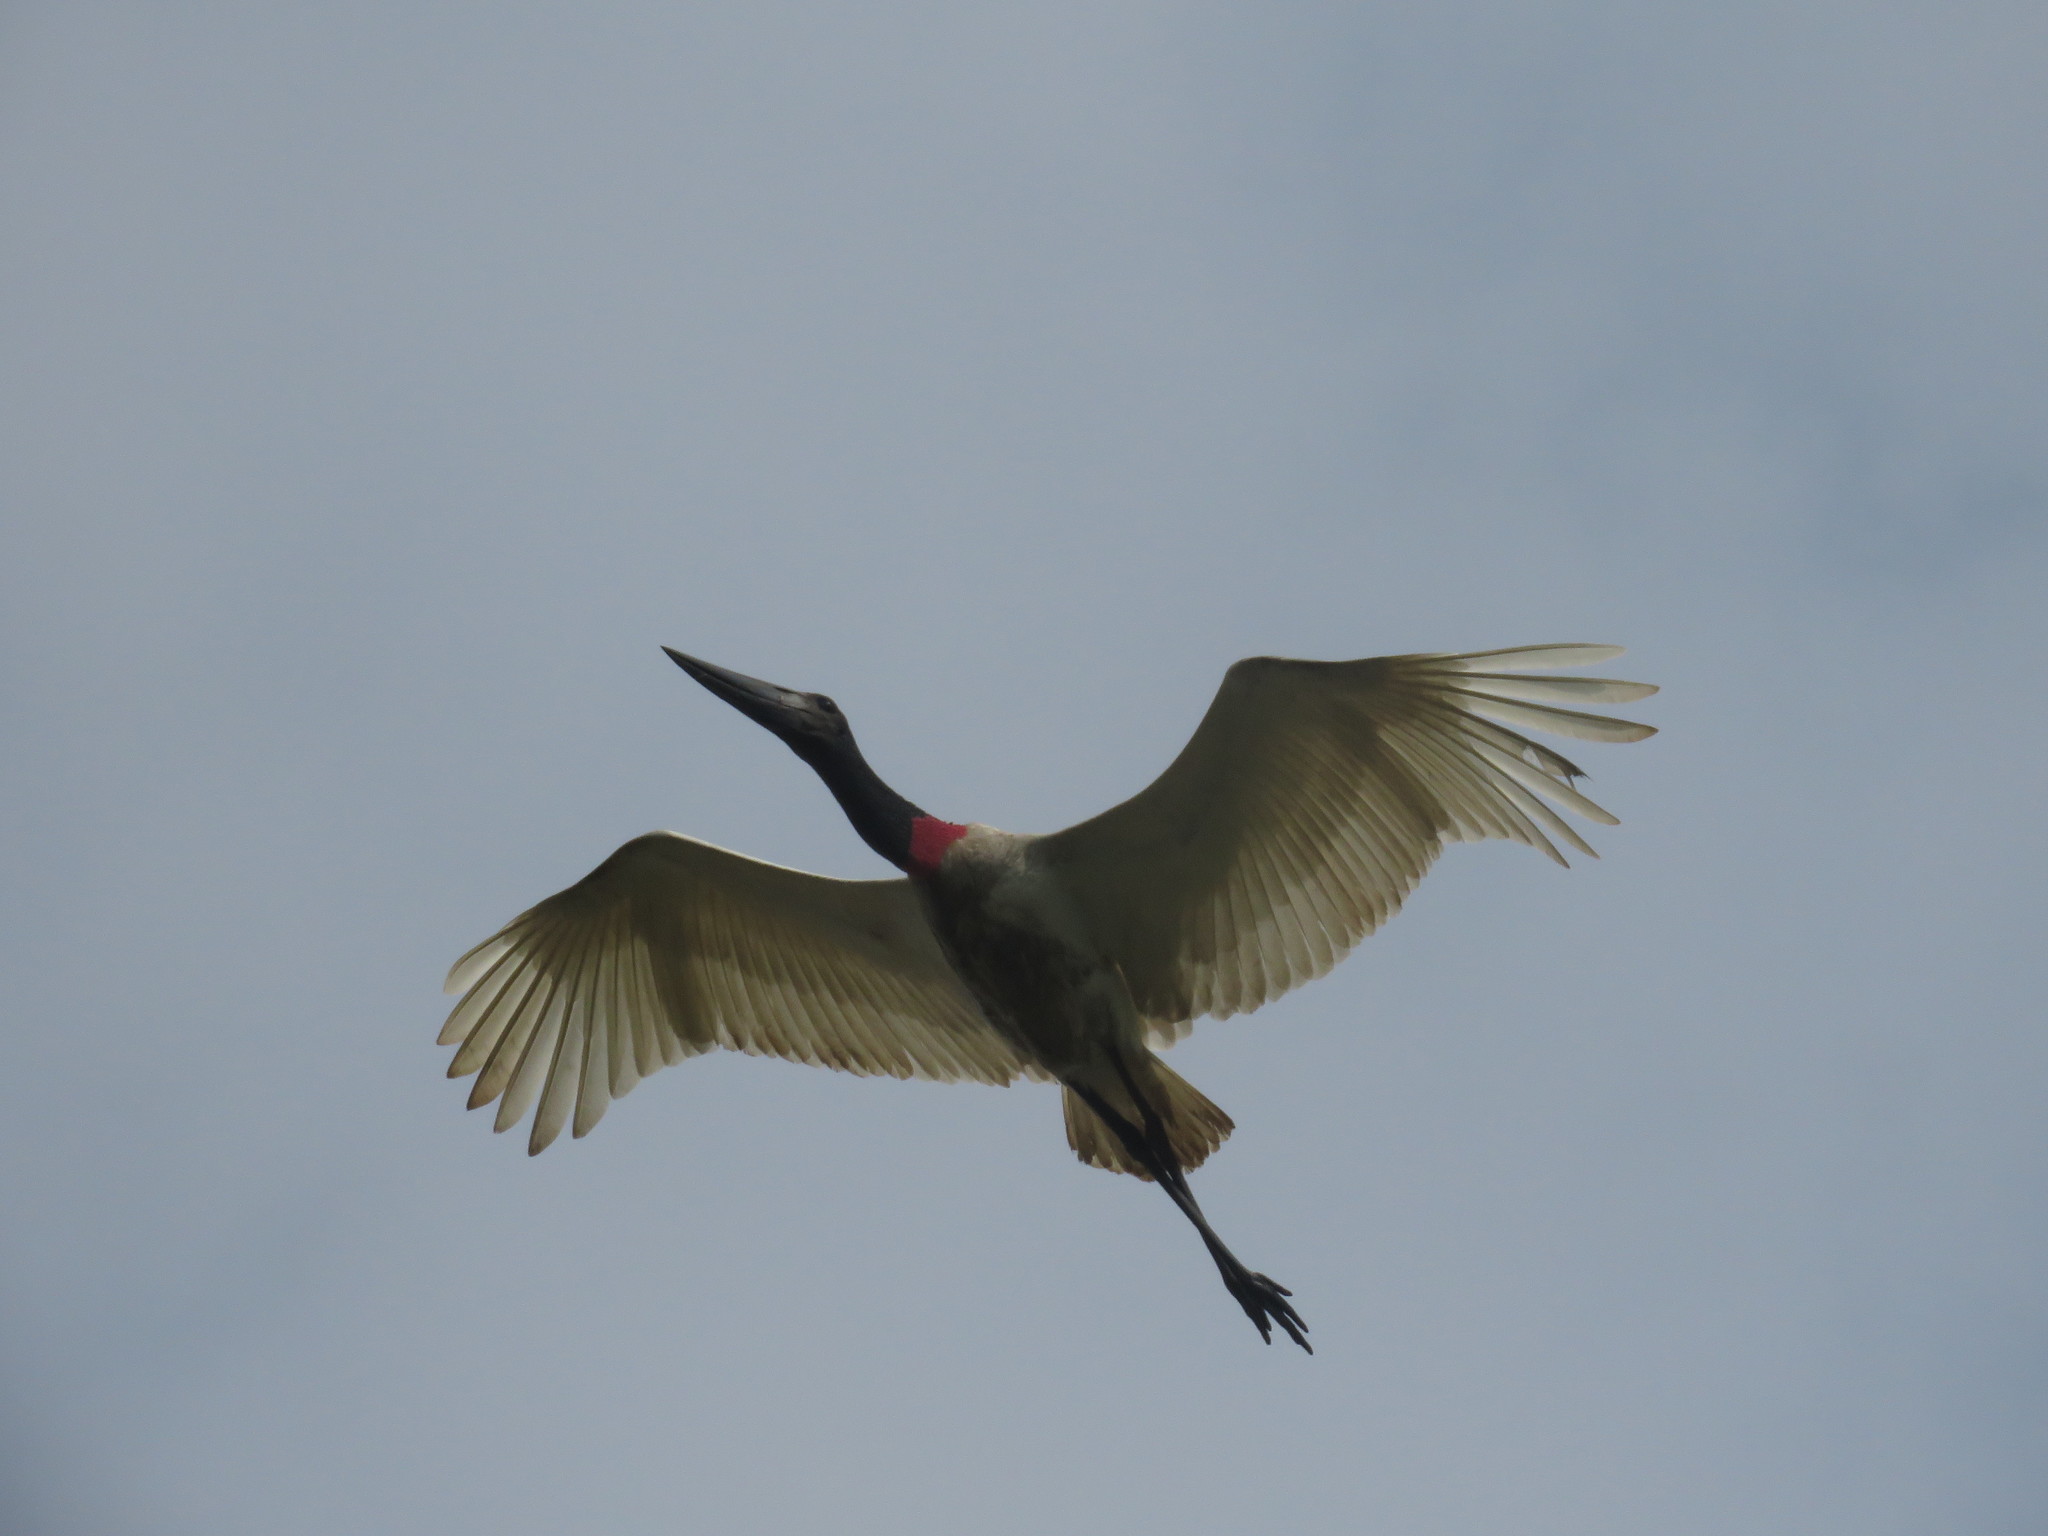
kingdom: Animalia
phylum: Chordata
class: Aves
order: Ciconiiformes
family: Ciconiidae
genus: Jabiru
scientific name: Jabiru mycteria
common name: Jabiru
